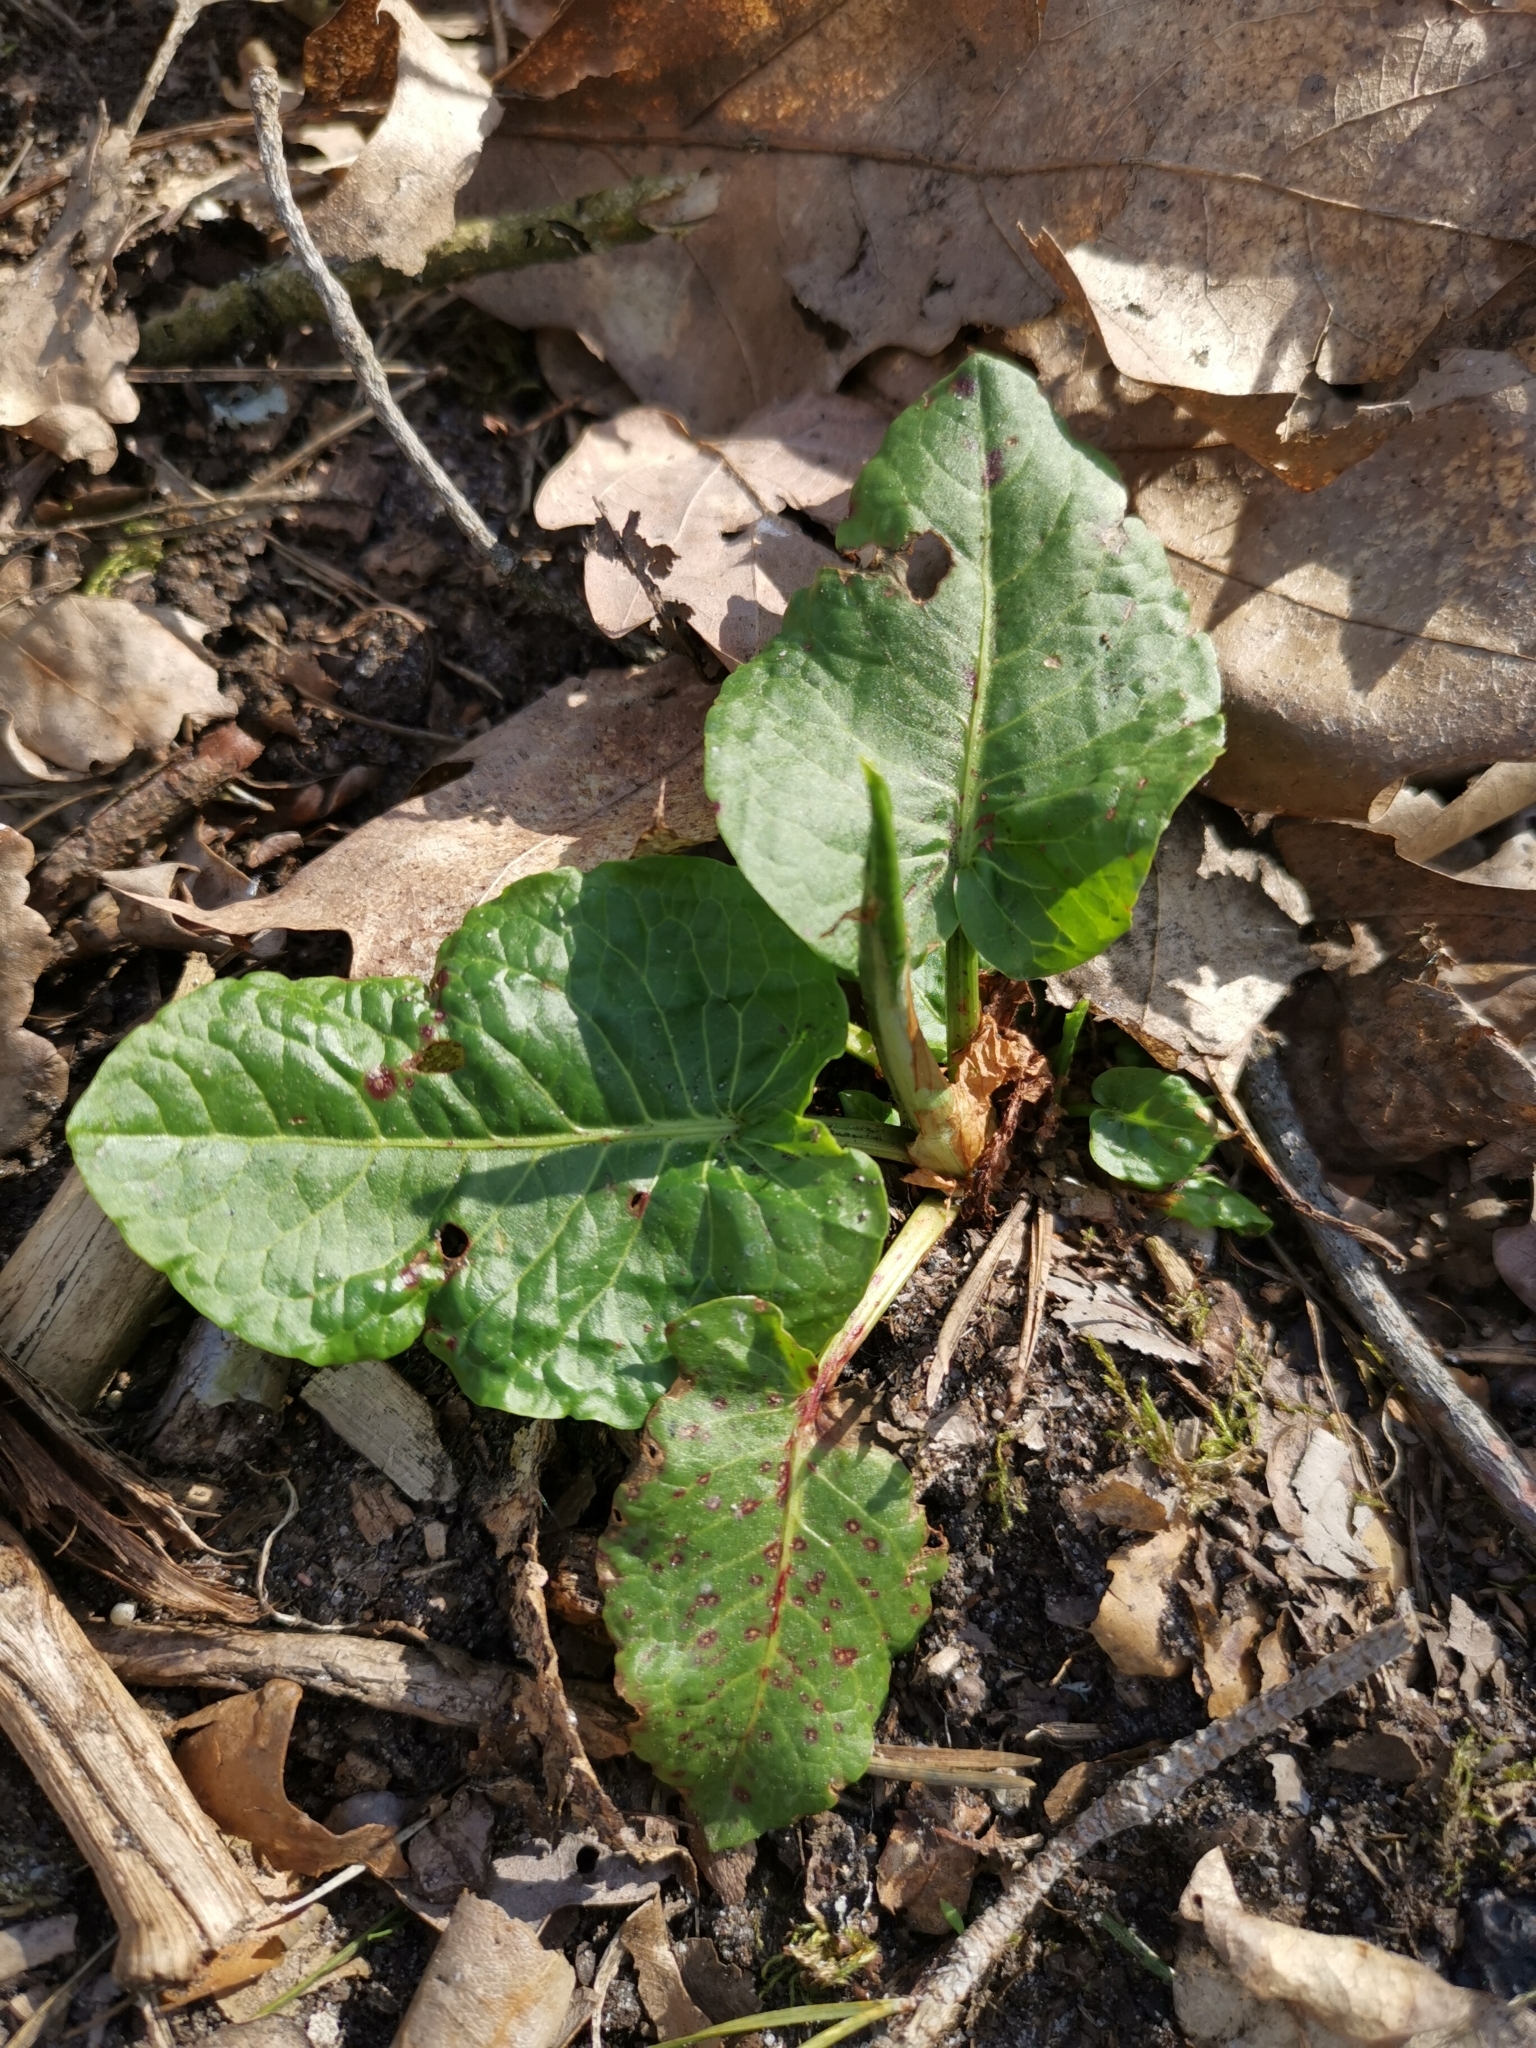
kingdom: Plantae
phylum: Tracheophyta
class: Magnoliopsida
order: Caryophyllales
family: Polygonaceae
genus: Rumex
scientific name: Rumex obtusifolius
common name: Bitter dock
